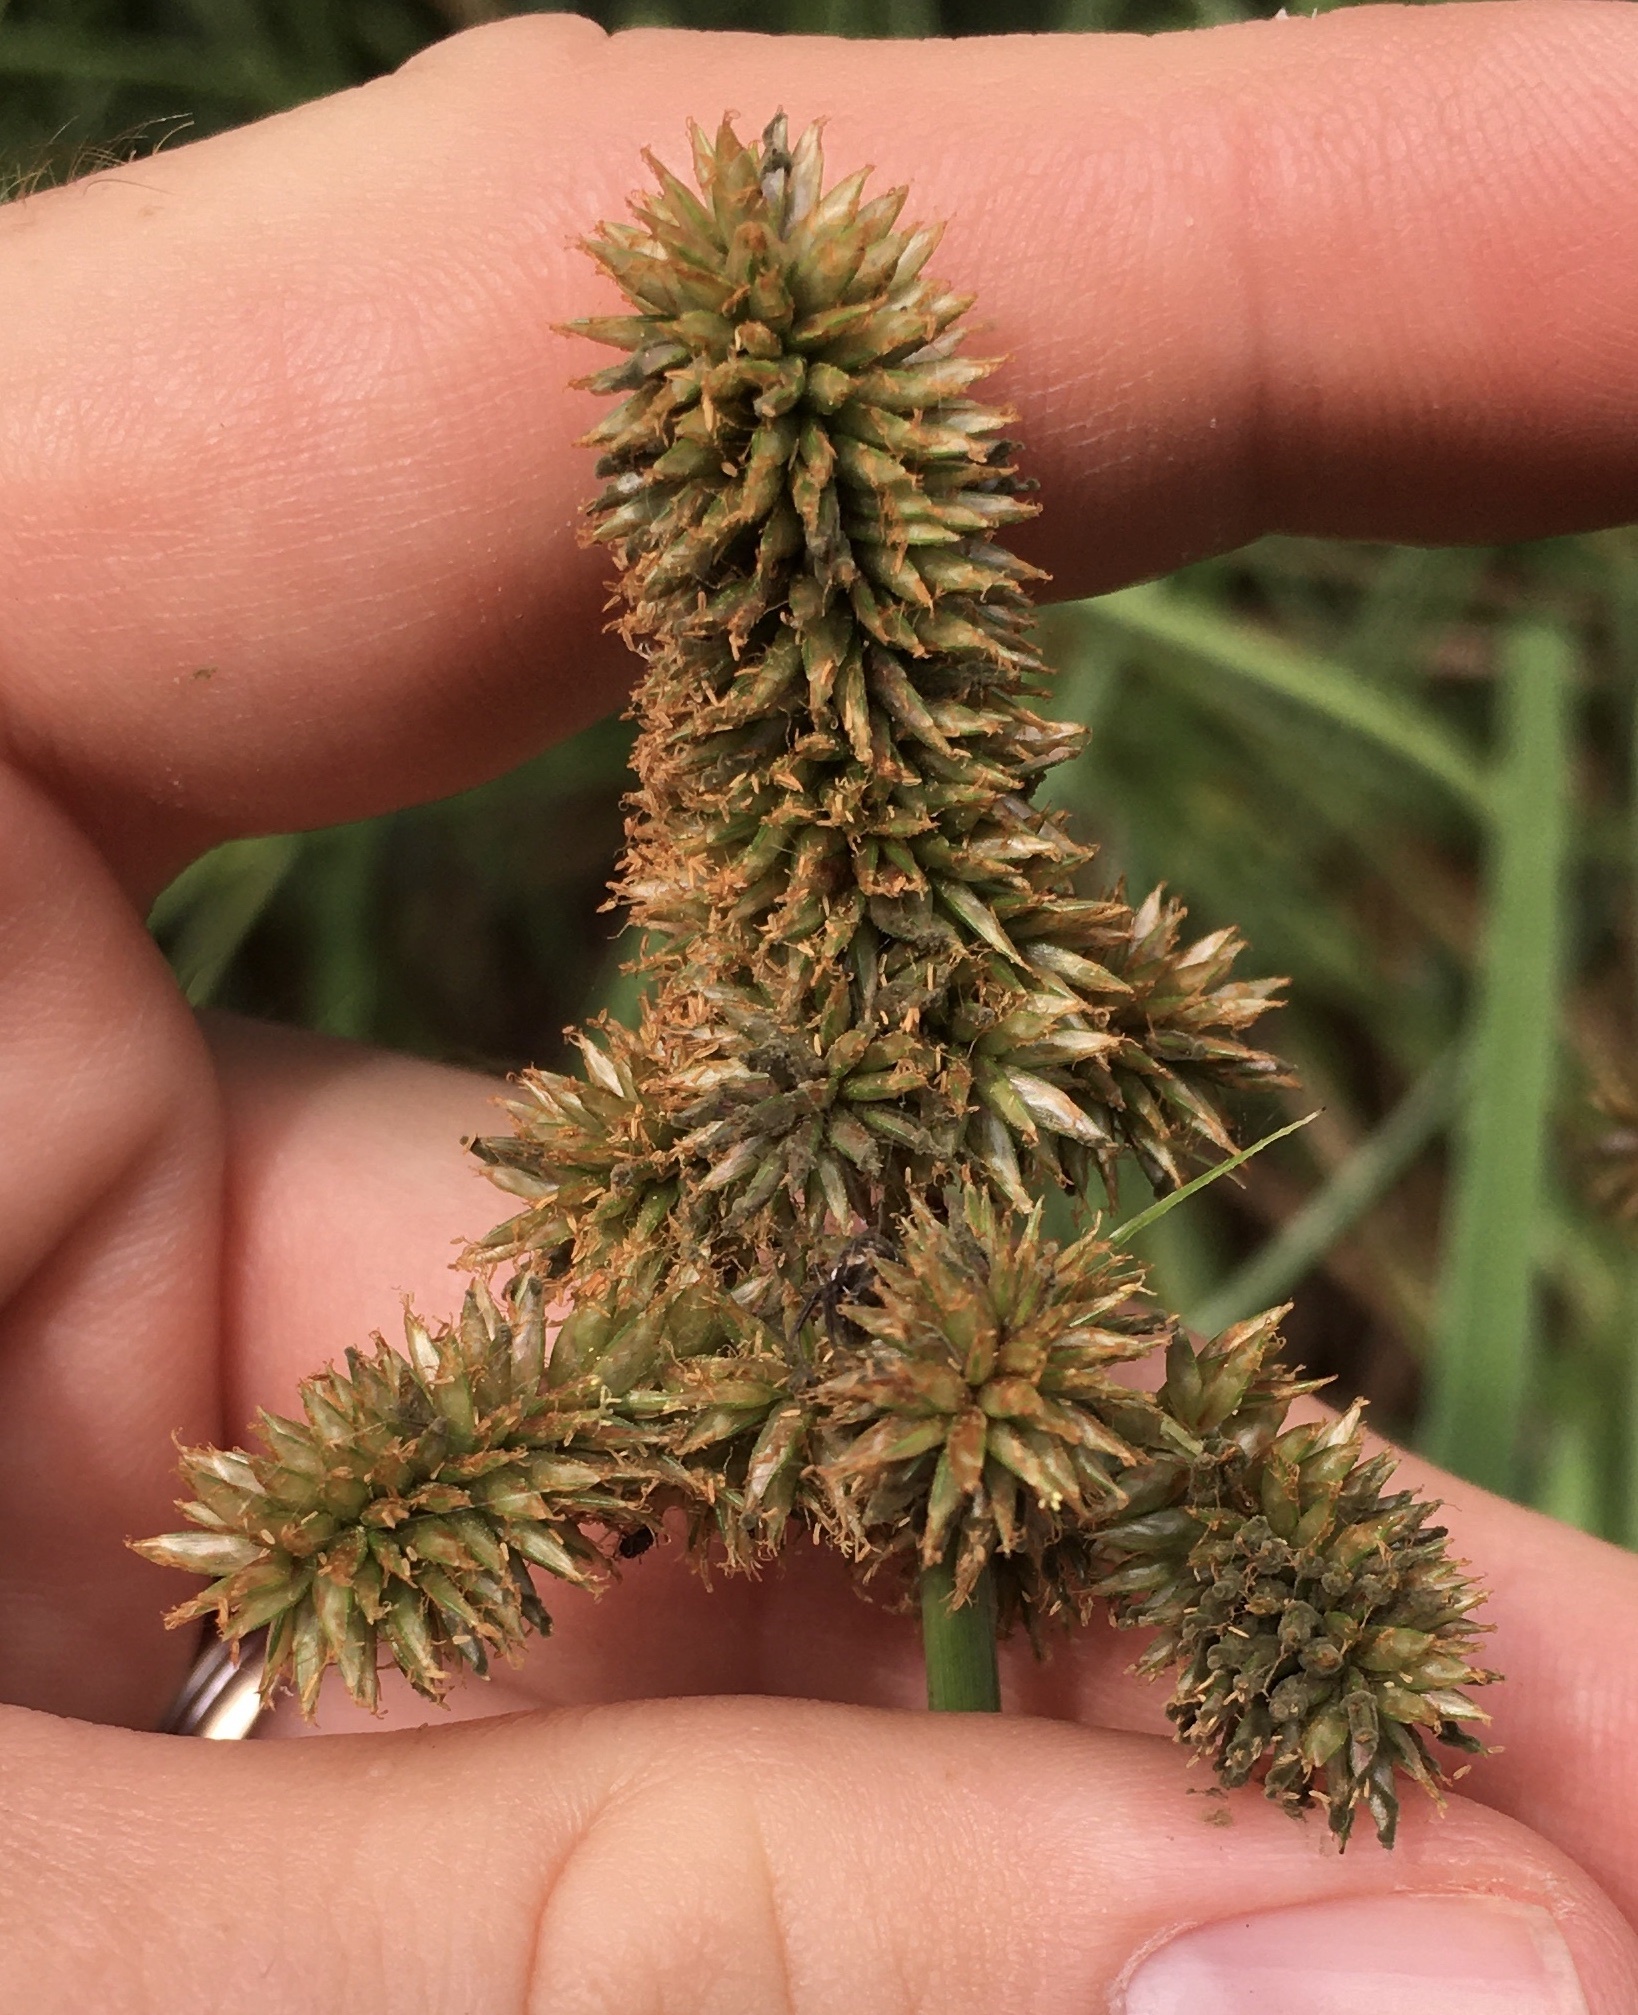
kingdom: Plantae
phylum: Tracheophyta
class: Liliopsida
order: Poales
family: Cyperaceae
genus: Cyperus
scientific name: Cyperus ligularis
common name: Swamp flat sedge
